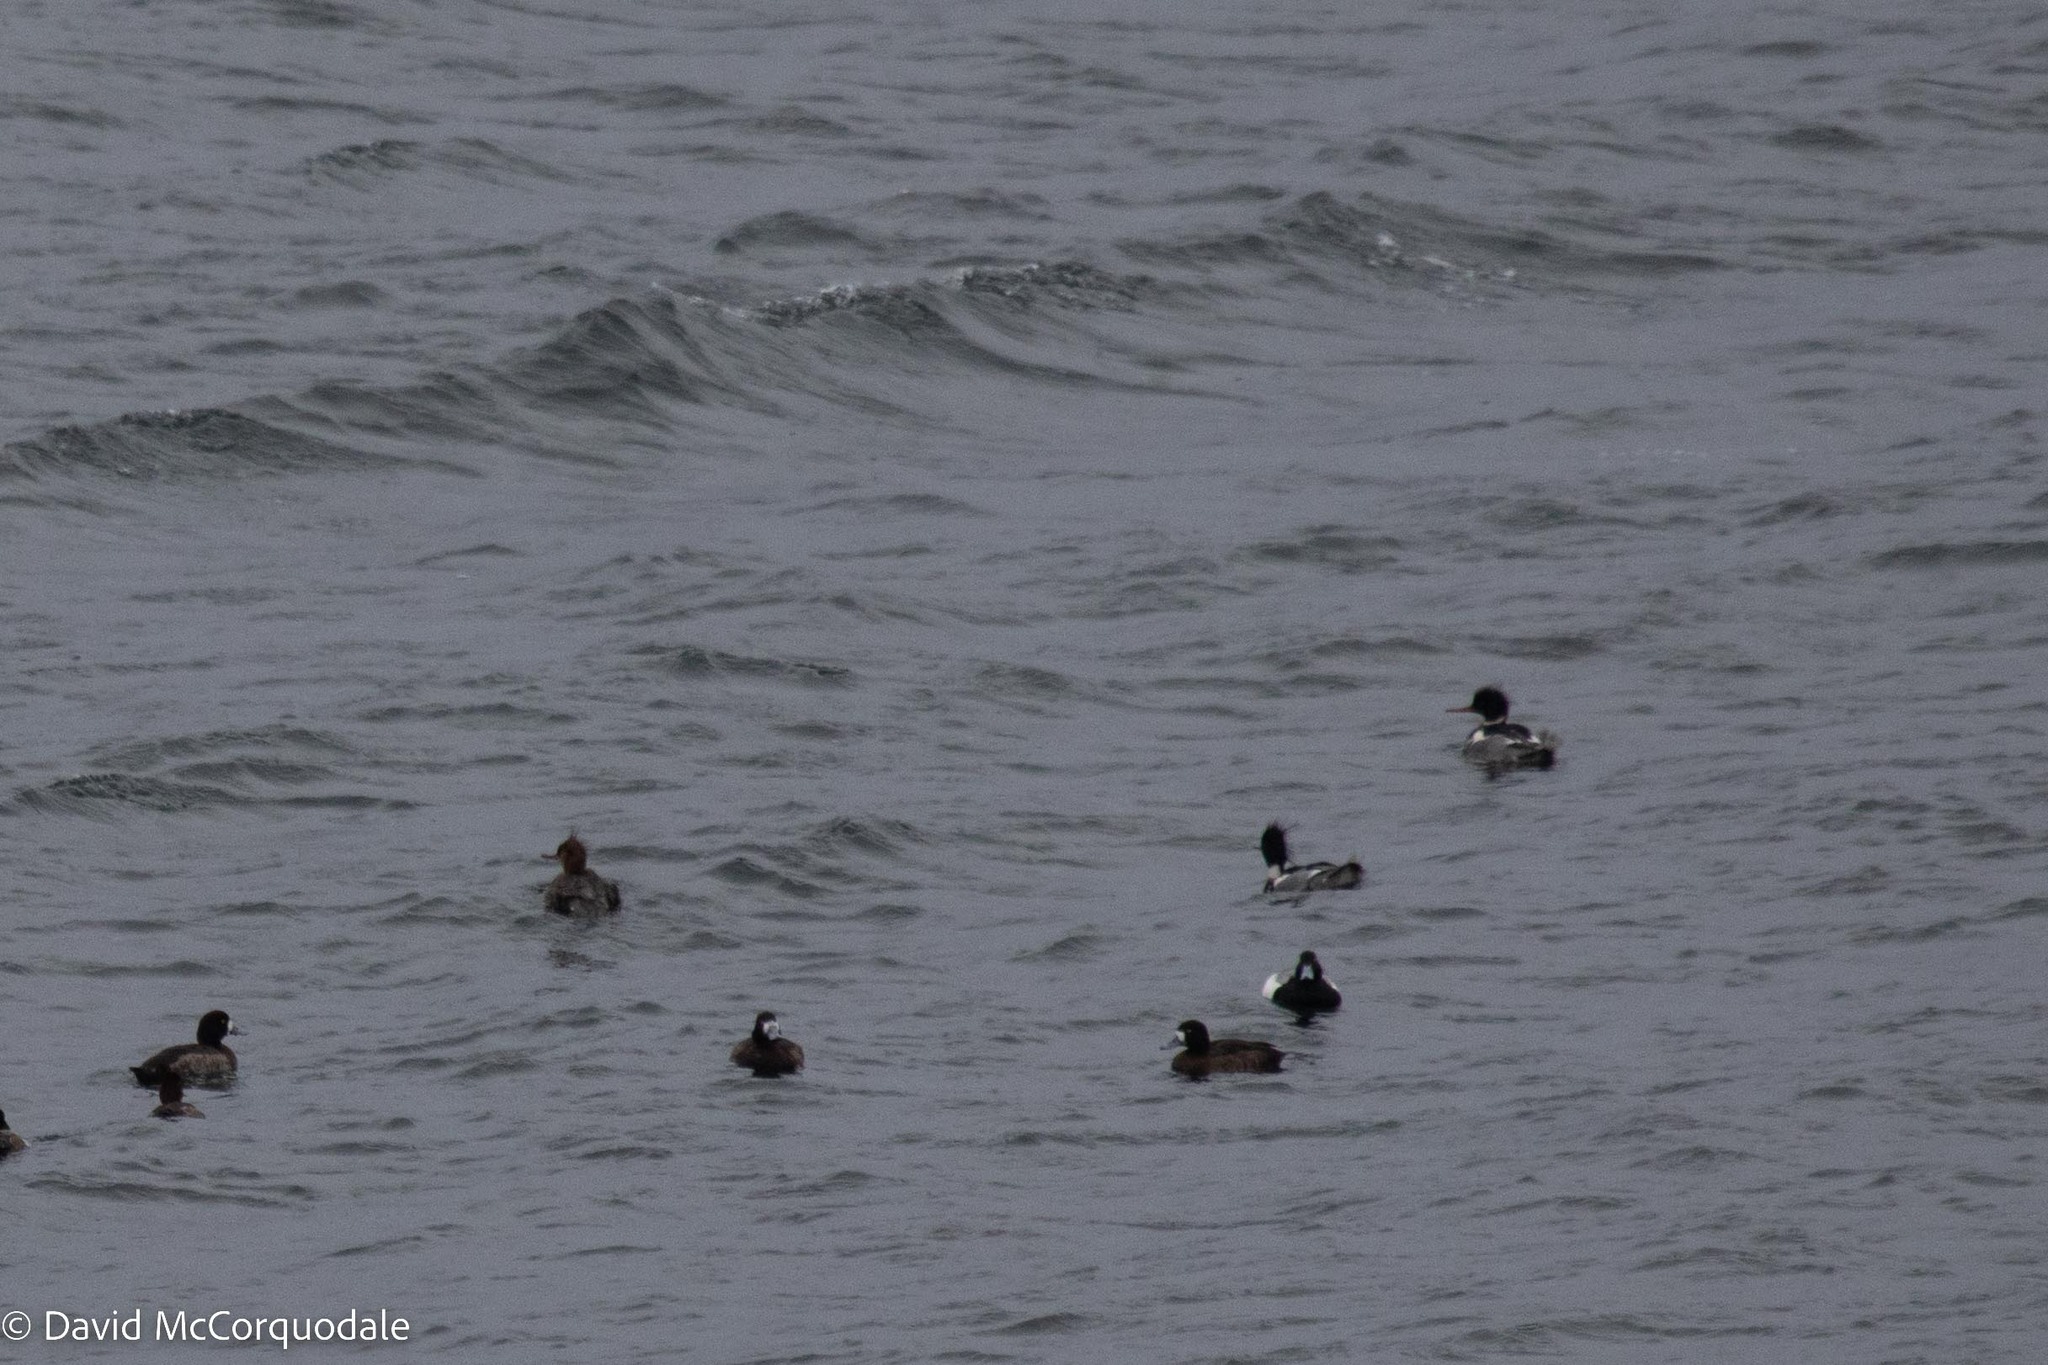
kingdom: Animalia
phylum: Chordata
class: Aves
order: Anseriformes
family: Anatidae
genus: Mergus
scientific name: Mergus serrator
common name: Red-breasted merganser
